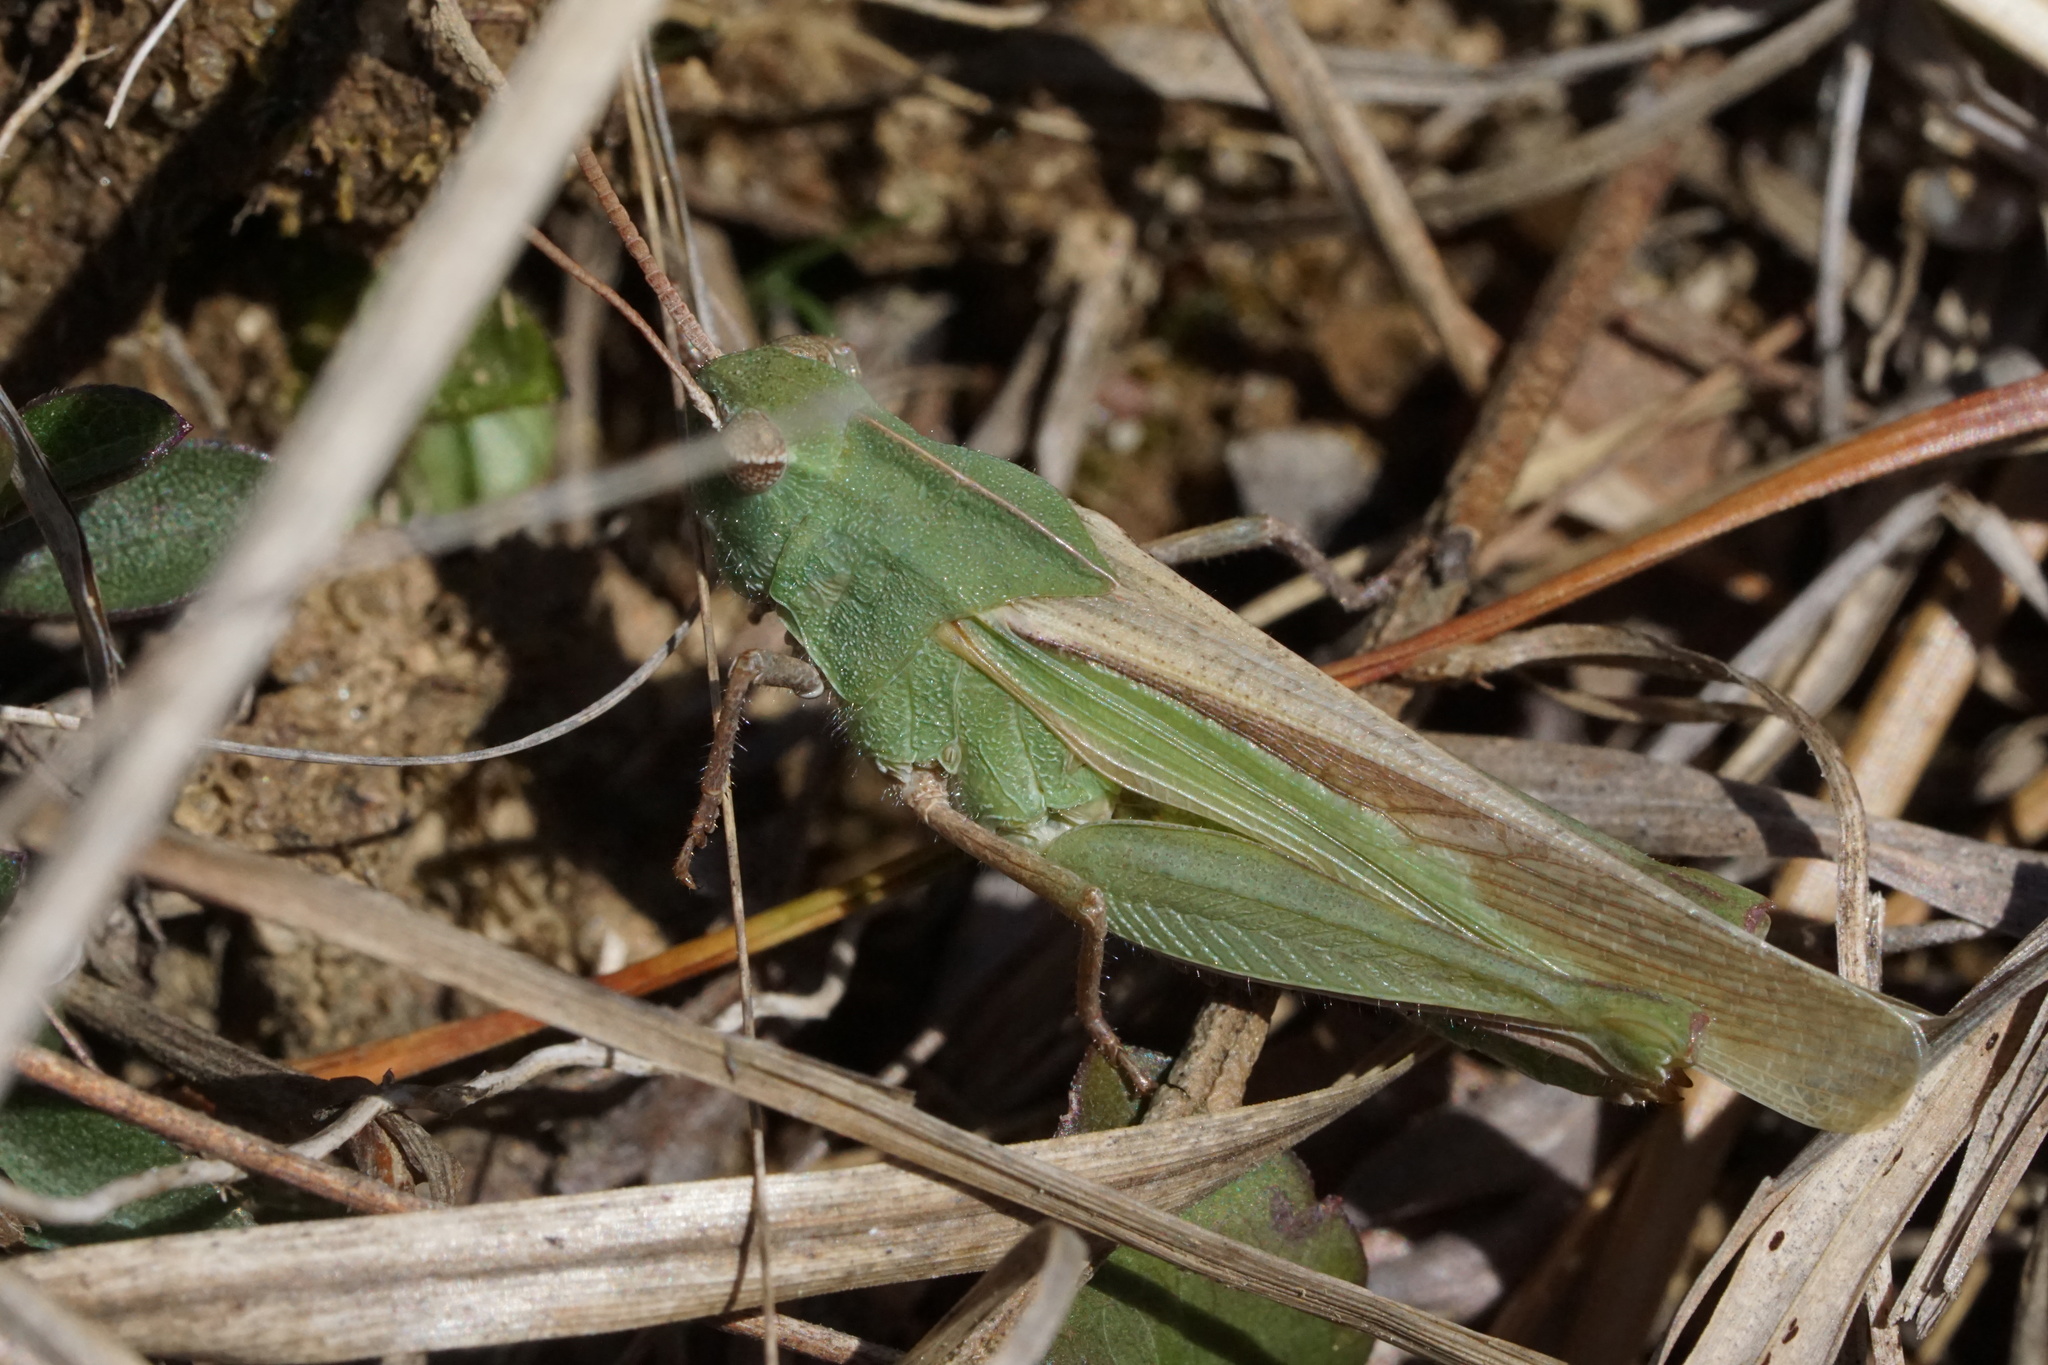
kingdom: Animalia
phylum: Arthropoda
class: Insecta
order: Orthoptera
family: Acrididae
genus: Chortophaga
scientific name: Chortophaga viridifasciata
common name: Green-striped grasshopper
